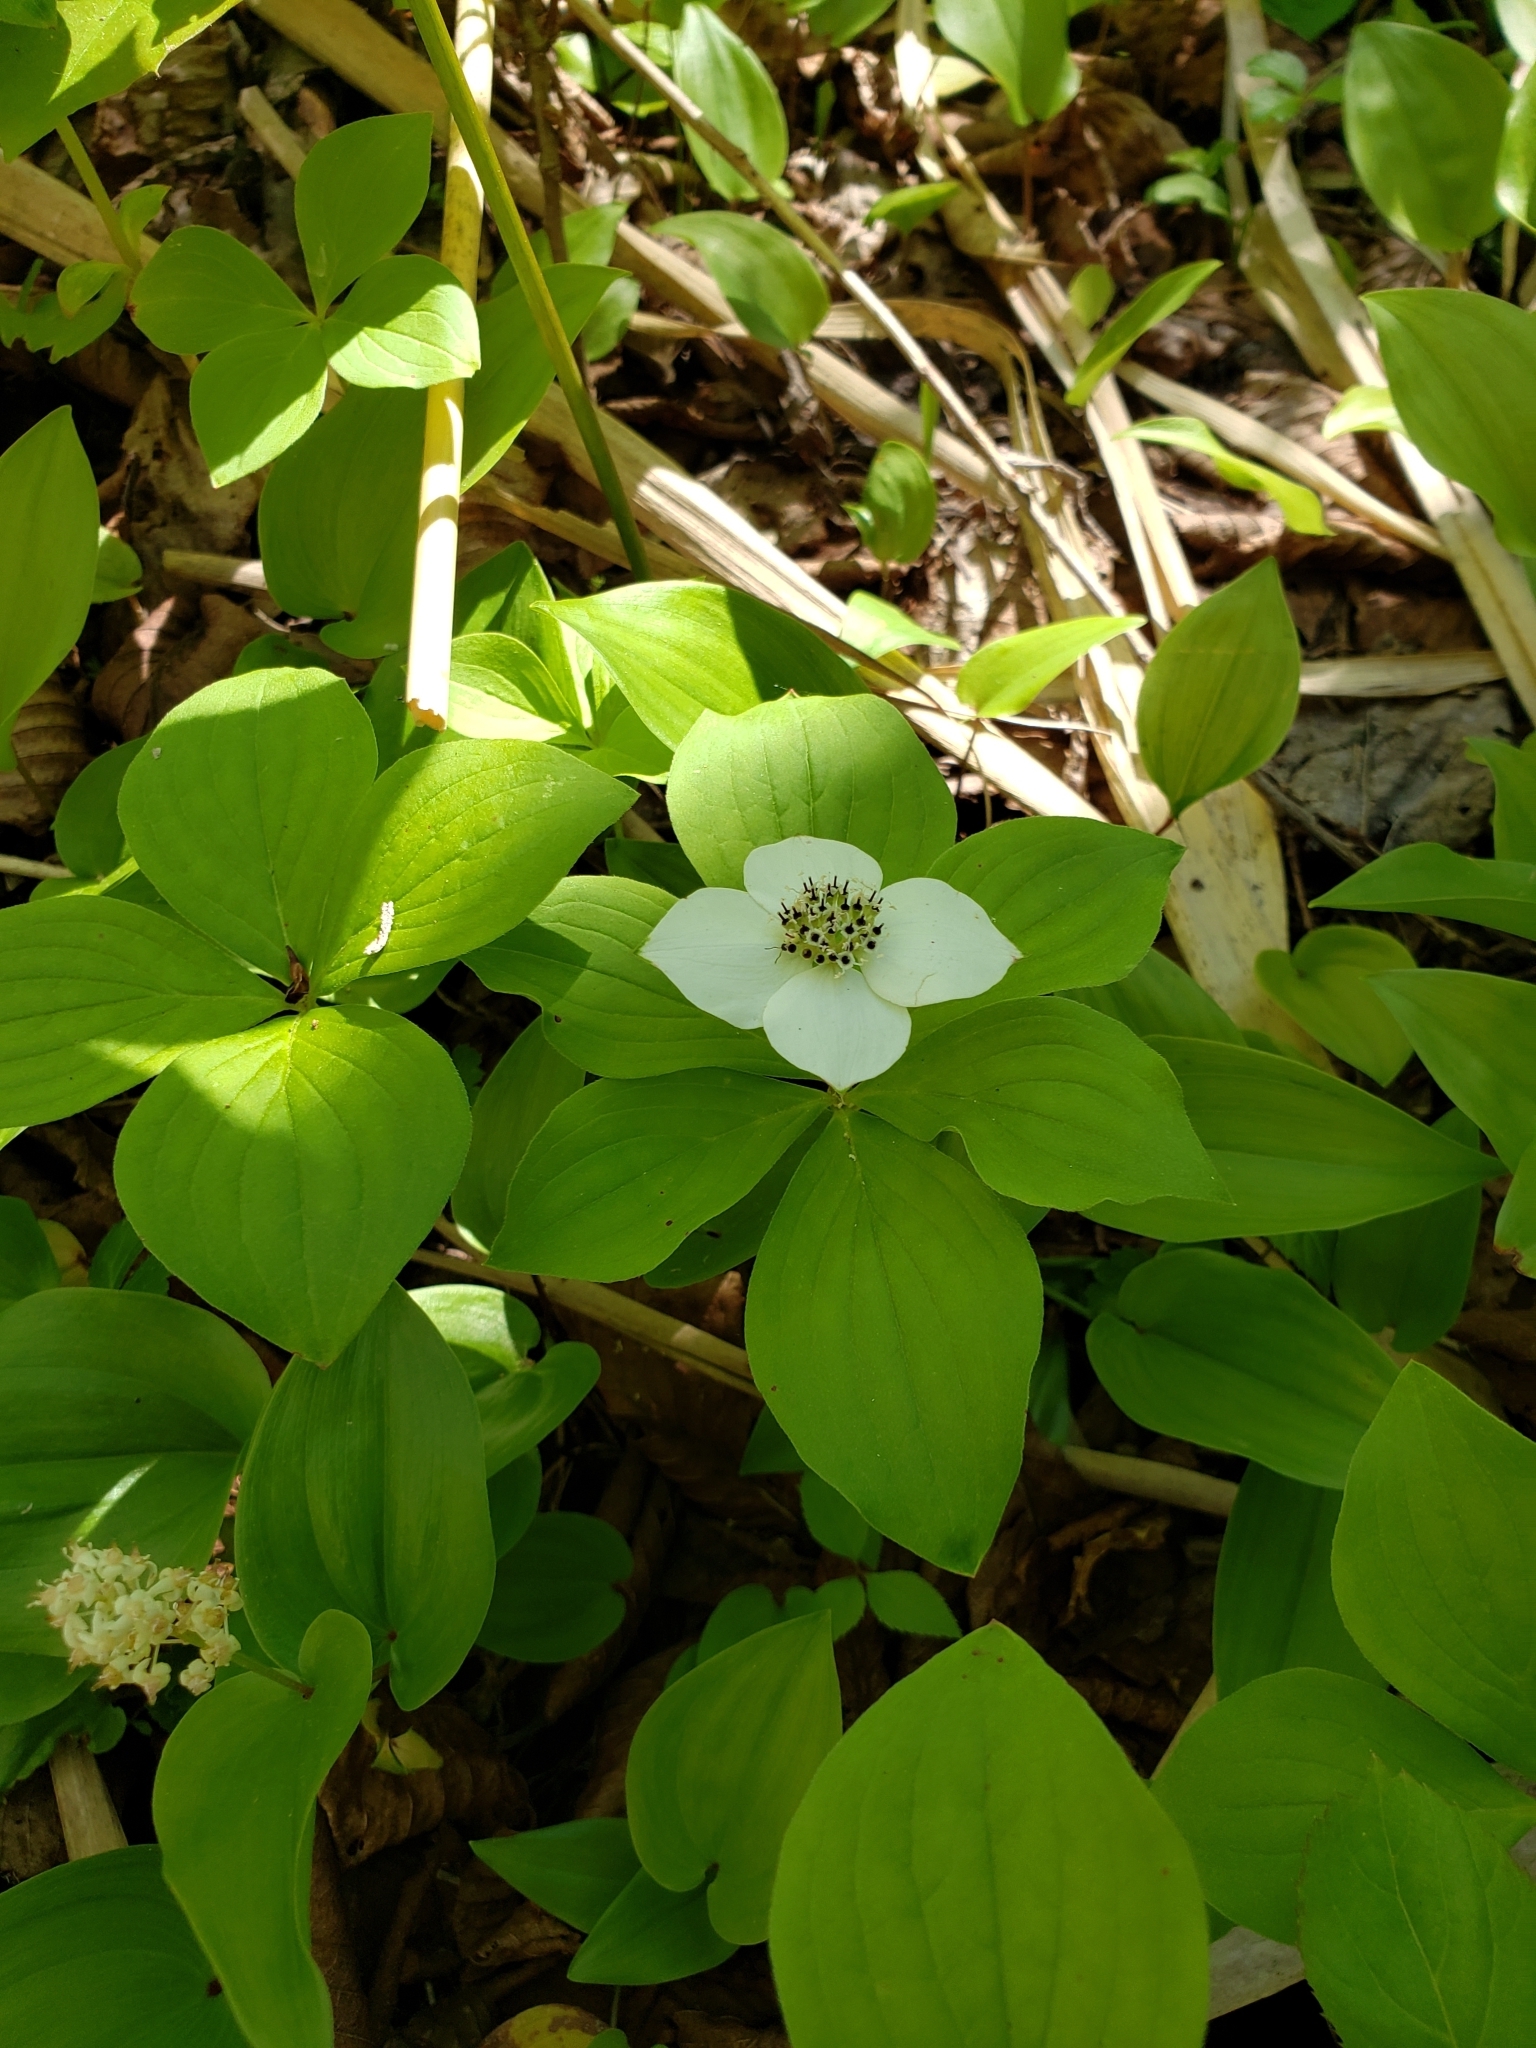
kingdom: Plantae
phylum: Tracheophyta
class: Magnoliopsida
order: Cornales
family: Cornaceae
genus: Cornus
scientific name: Cornus canadensis
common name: Creeping dogwood
